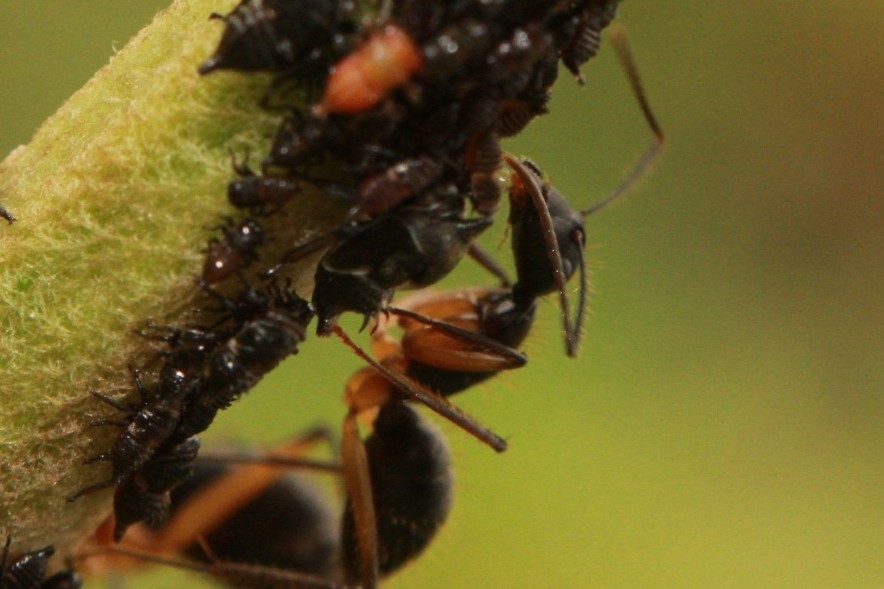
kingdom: Animalia
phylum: Arthropoda
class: Insecta
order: Hymenoptera
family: Formicidae
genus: Camponotus
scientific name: Camponotus renggeri
